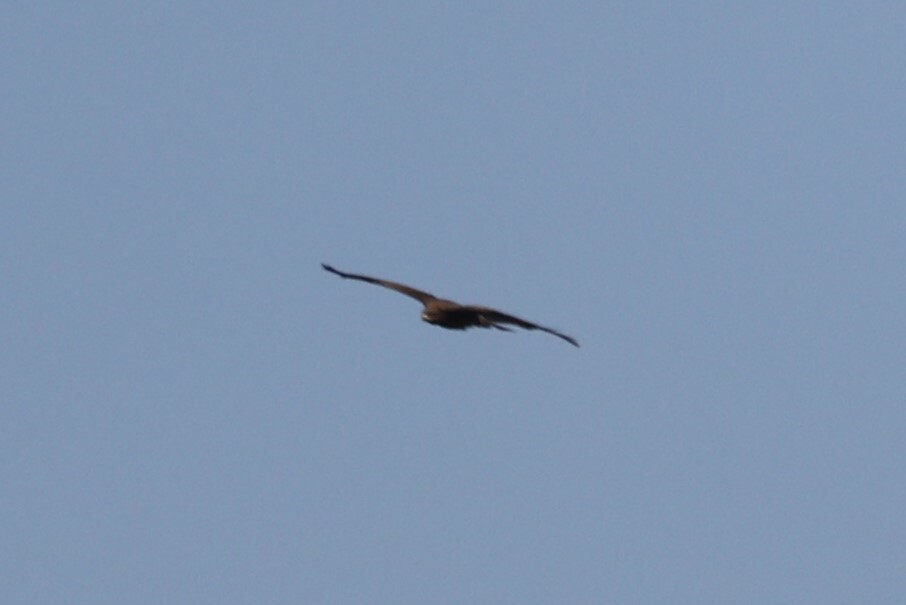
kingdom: Animalia
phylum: Chordata
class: Aves
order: Accipitriformes
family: Accipitridae
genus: Milvus
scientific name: Milvus migrans
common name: Black kite
